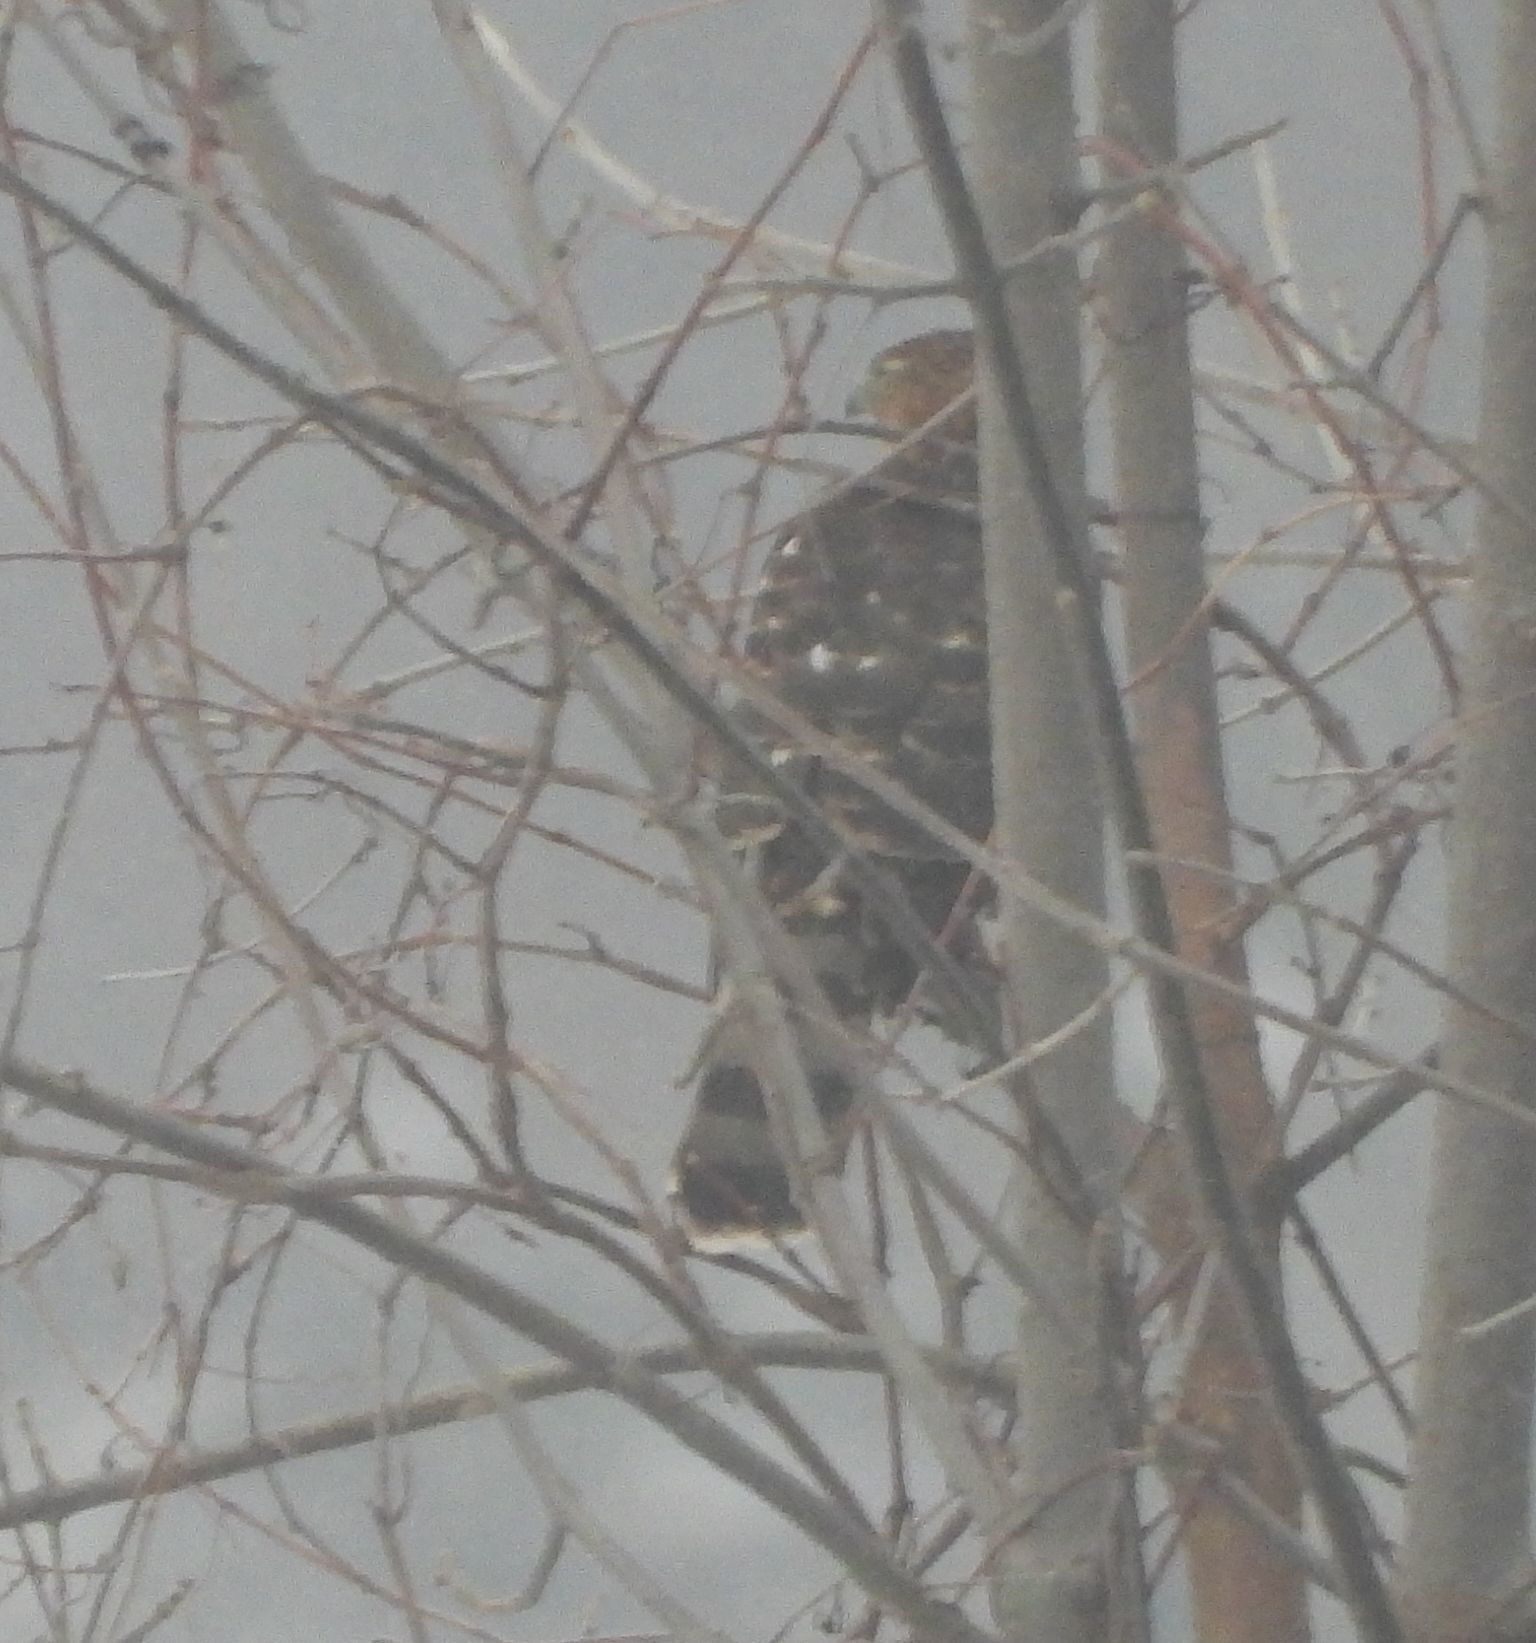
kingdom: Animalia
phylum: Chordata
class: Aves
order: Accipitriformes
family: Accipitridae
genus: Accipiter
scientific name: Accipiter cooperii
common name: Cooper's hawk
